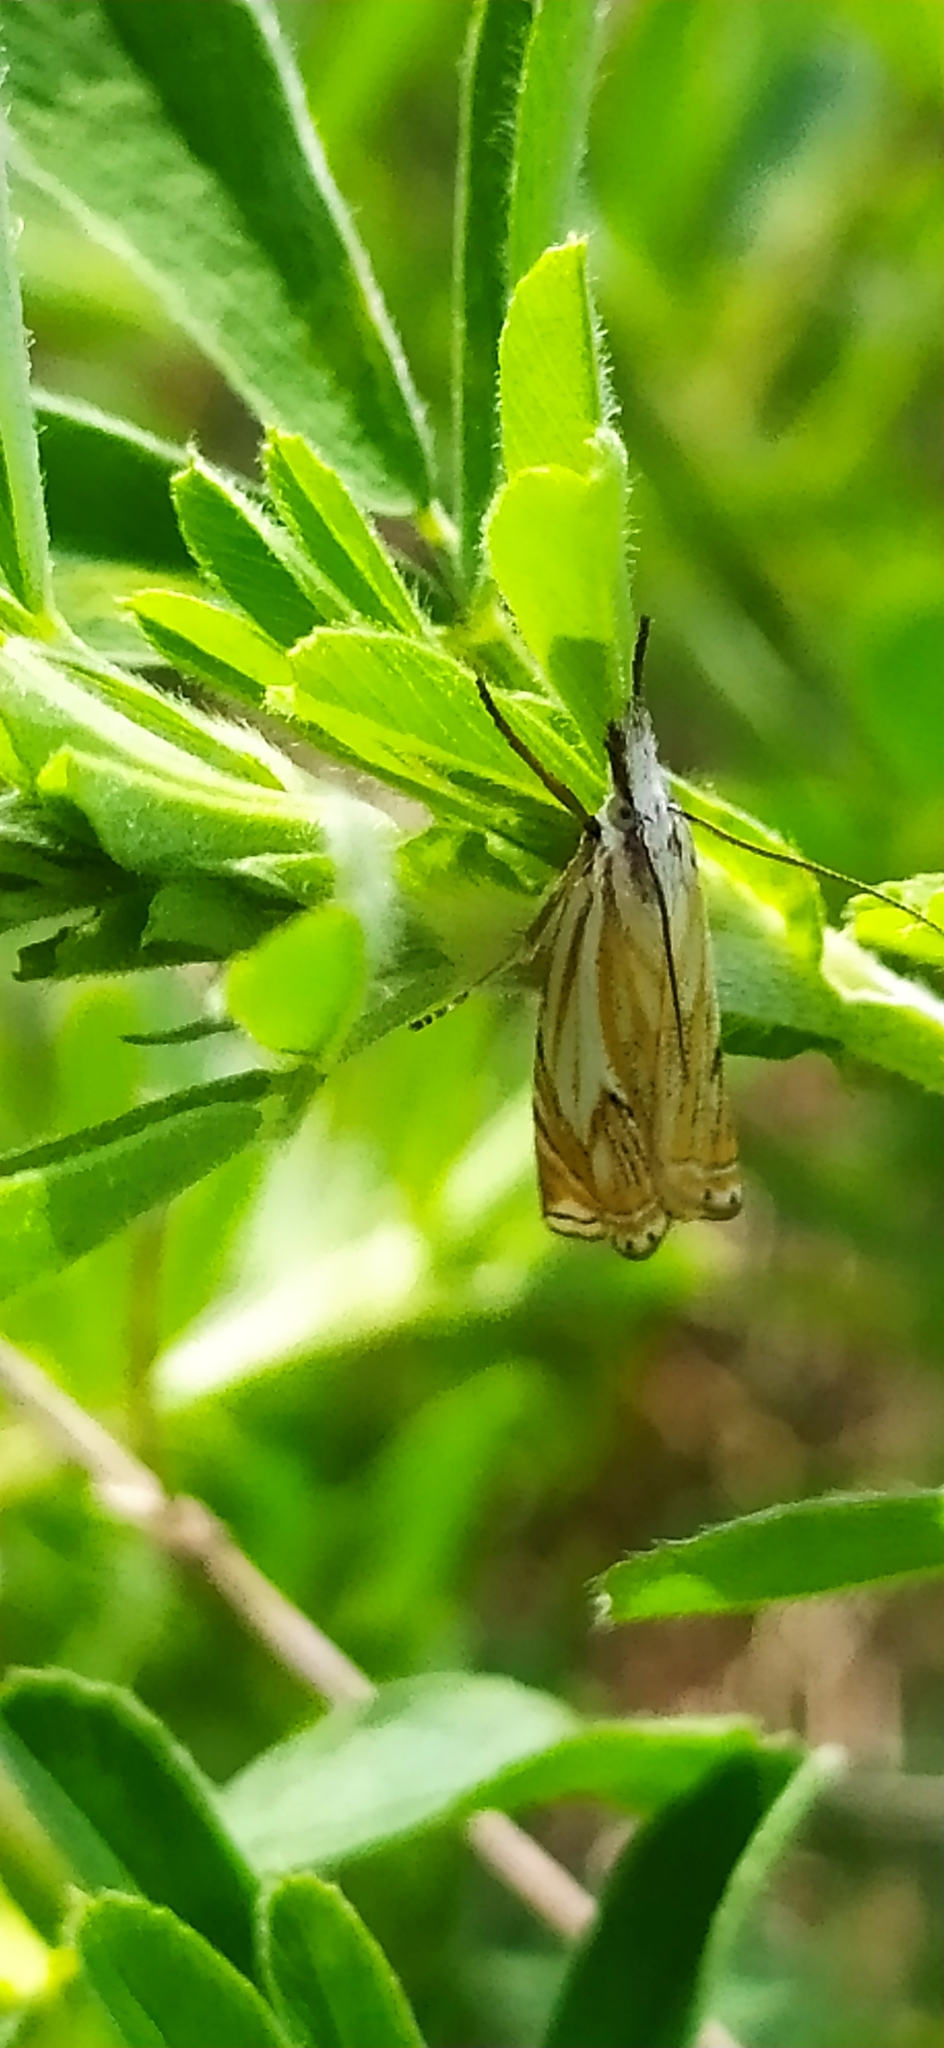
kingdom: Animalia
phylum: Arthropoda
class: Insecta
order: Lepidoptera
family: Crambidae
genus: Crambus
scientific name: Crambus nemorella
